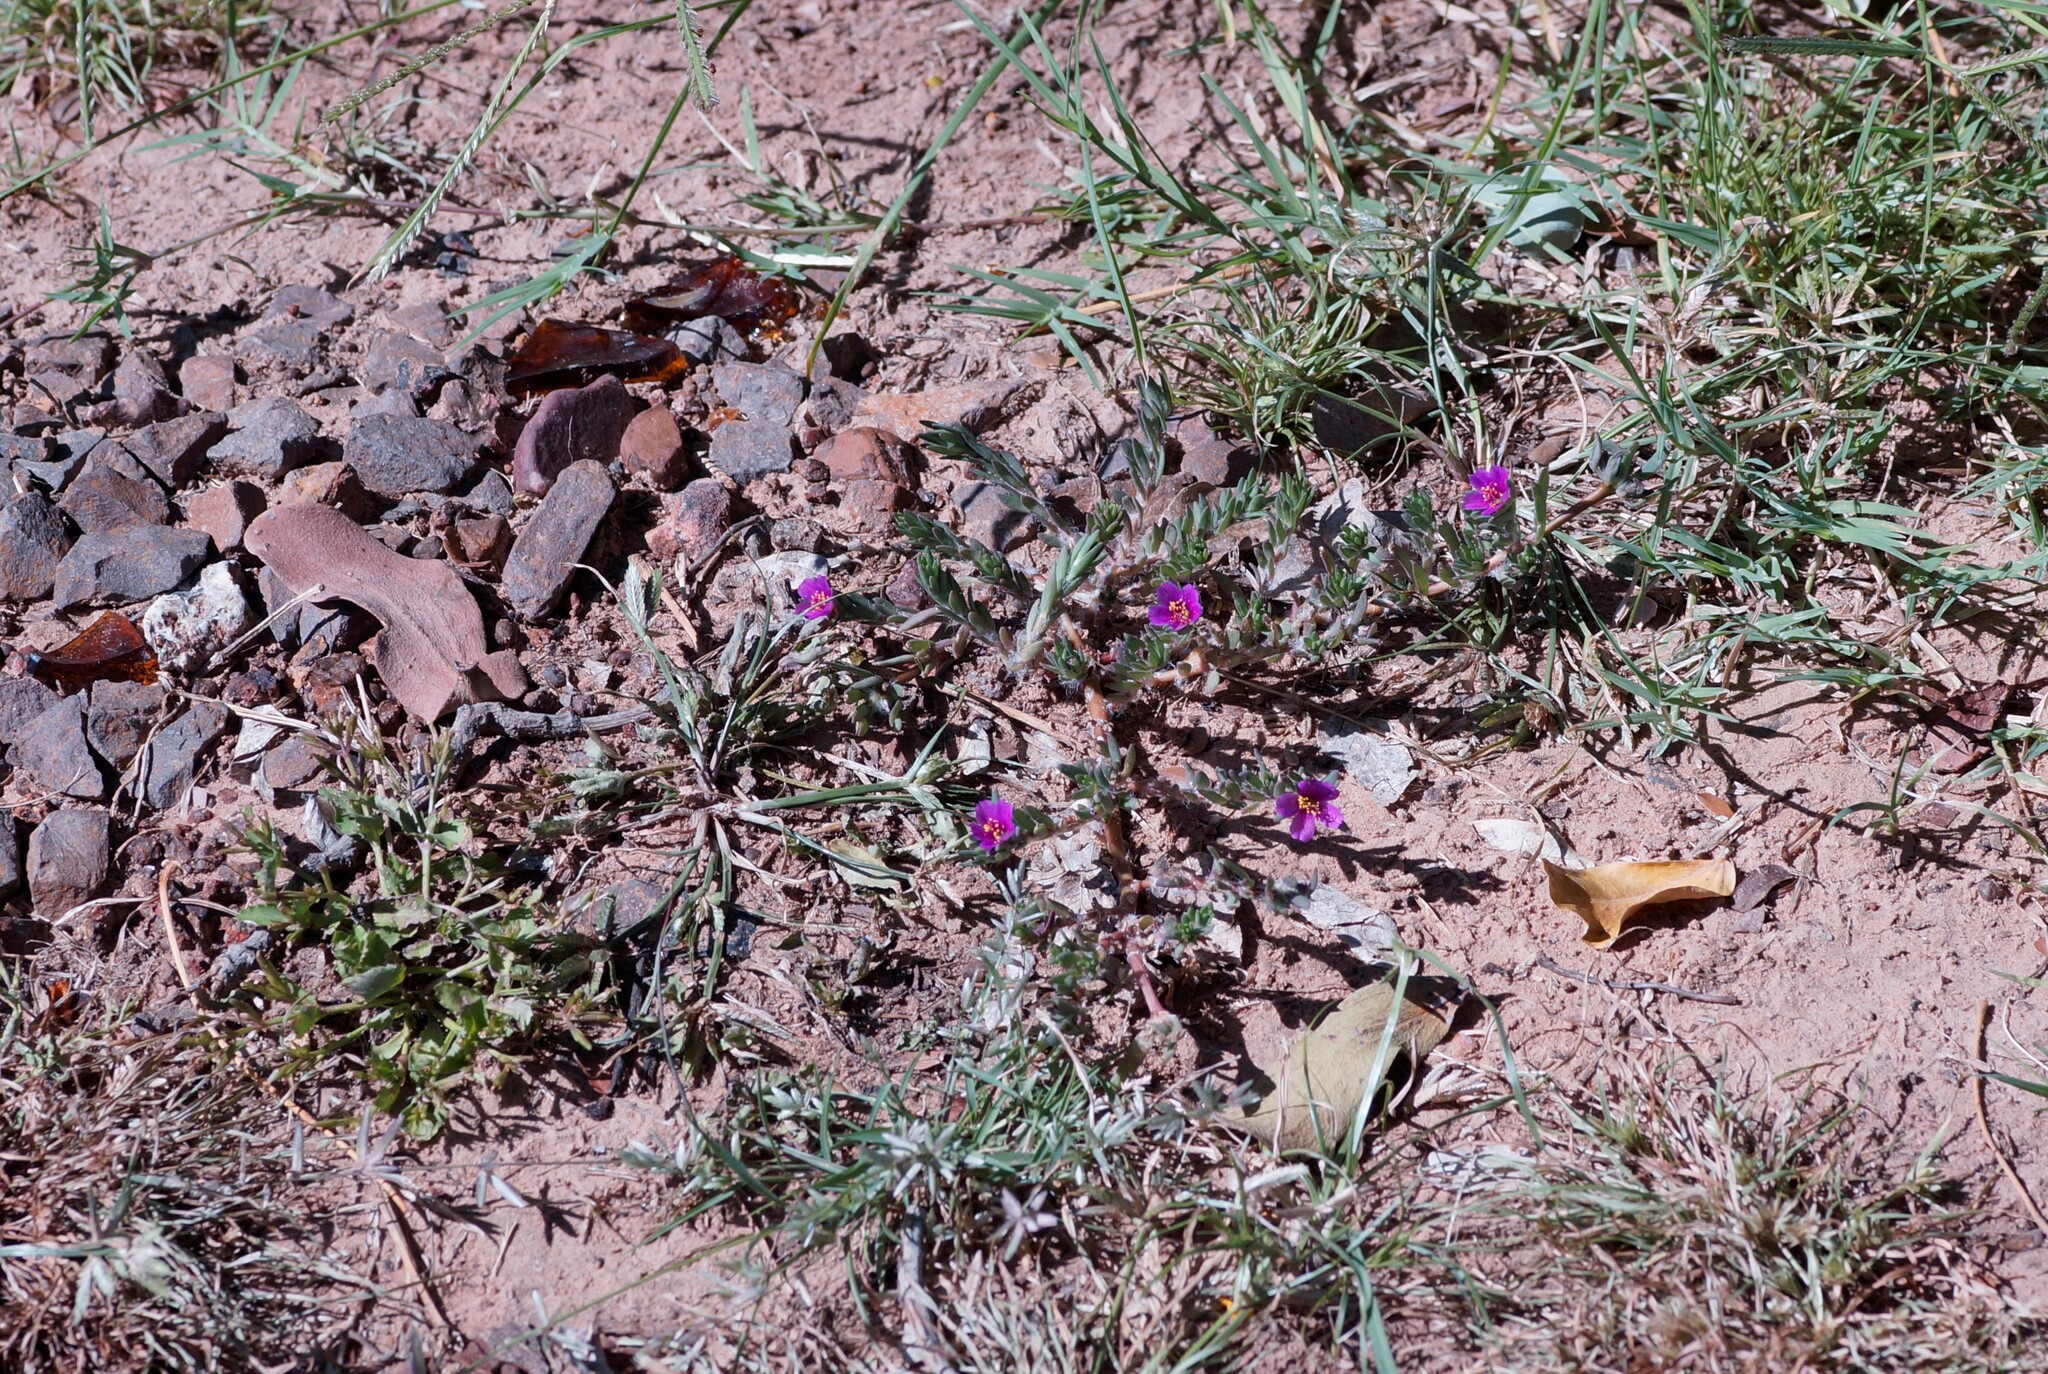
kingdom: Plantae
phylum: Tracheophyta
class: Magnoliopsida
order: Caryophyllales
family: Portulacaceae
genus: Portulaca
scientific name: Portulaca pilosa
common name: Kiss me quick
